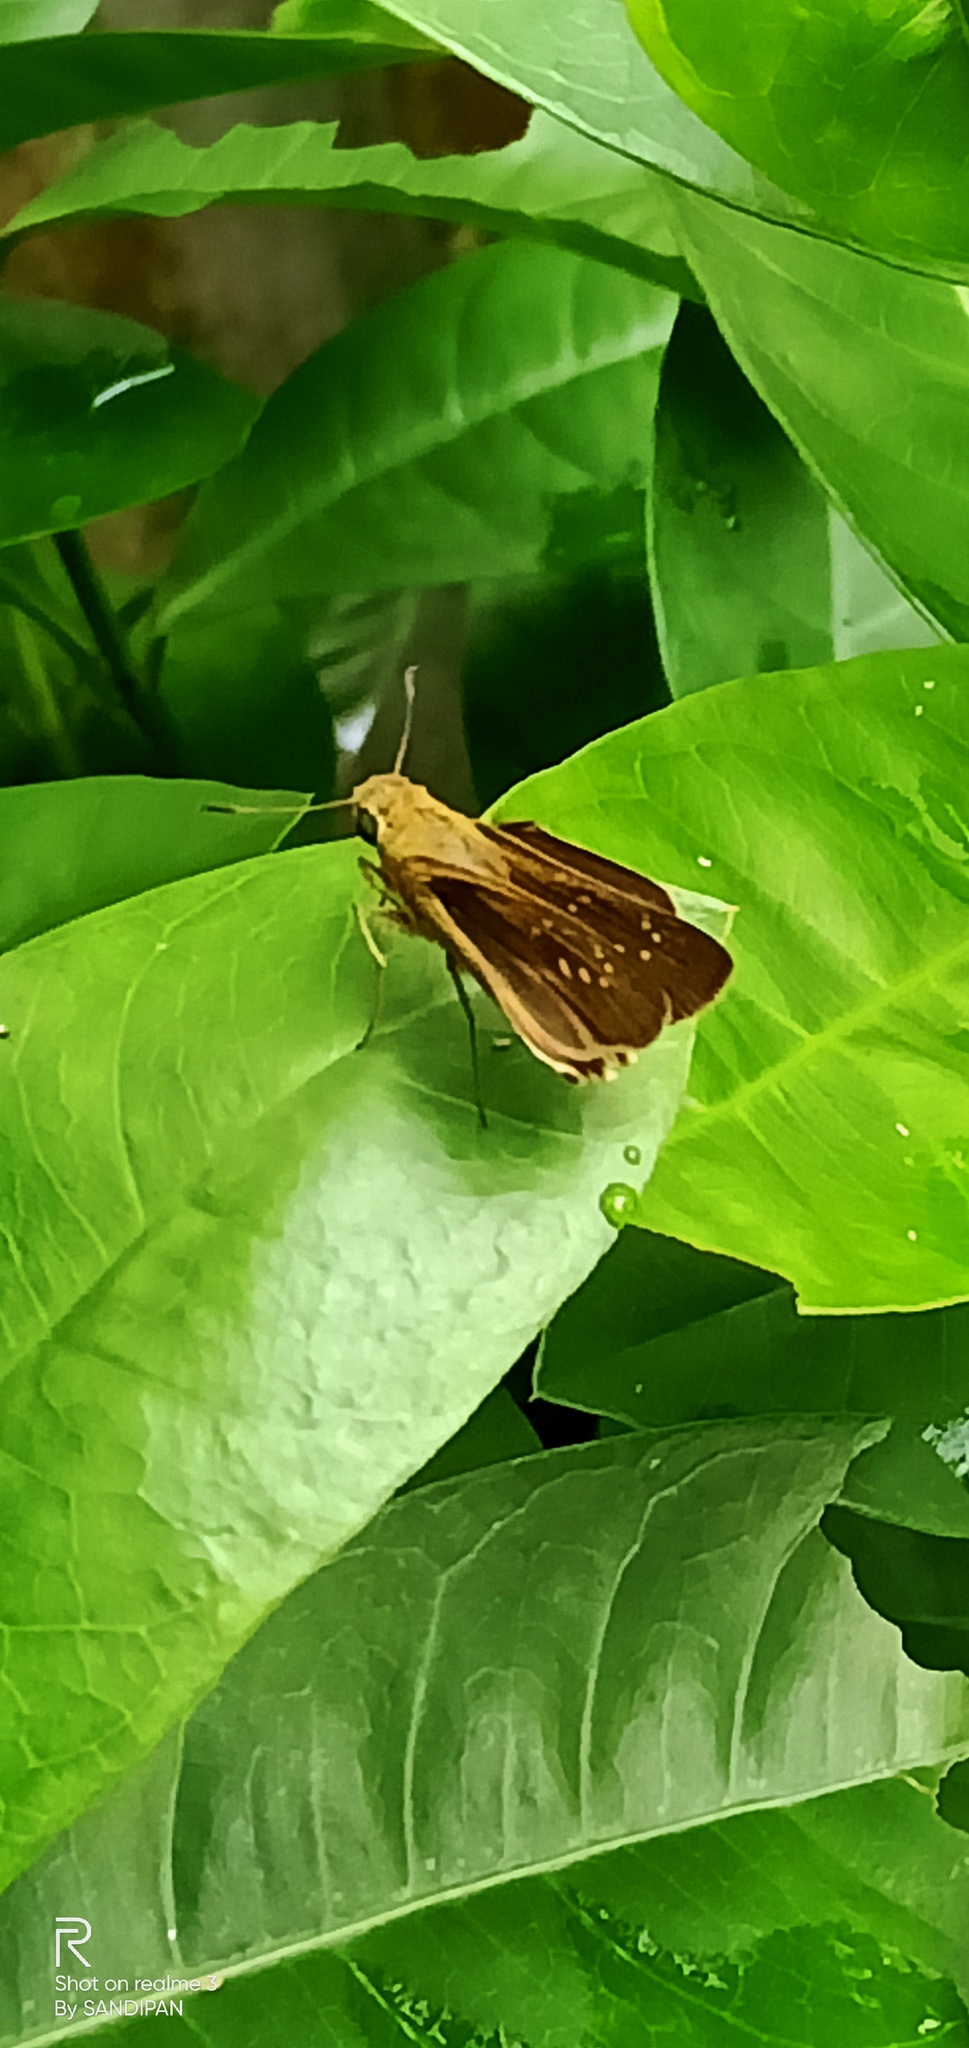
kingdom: Animalia
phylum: Arthropoda
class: Insecta
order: Lepidoptera
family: Hesperiidae
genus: Pelopidas
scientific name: Pelopidas mathias
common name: Black-branded swift
